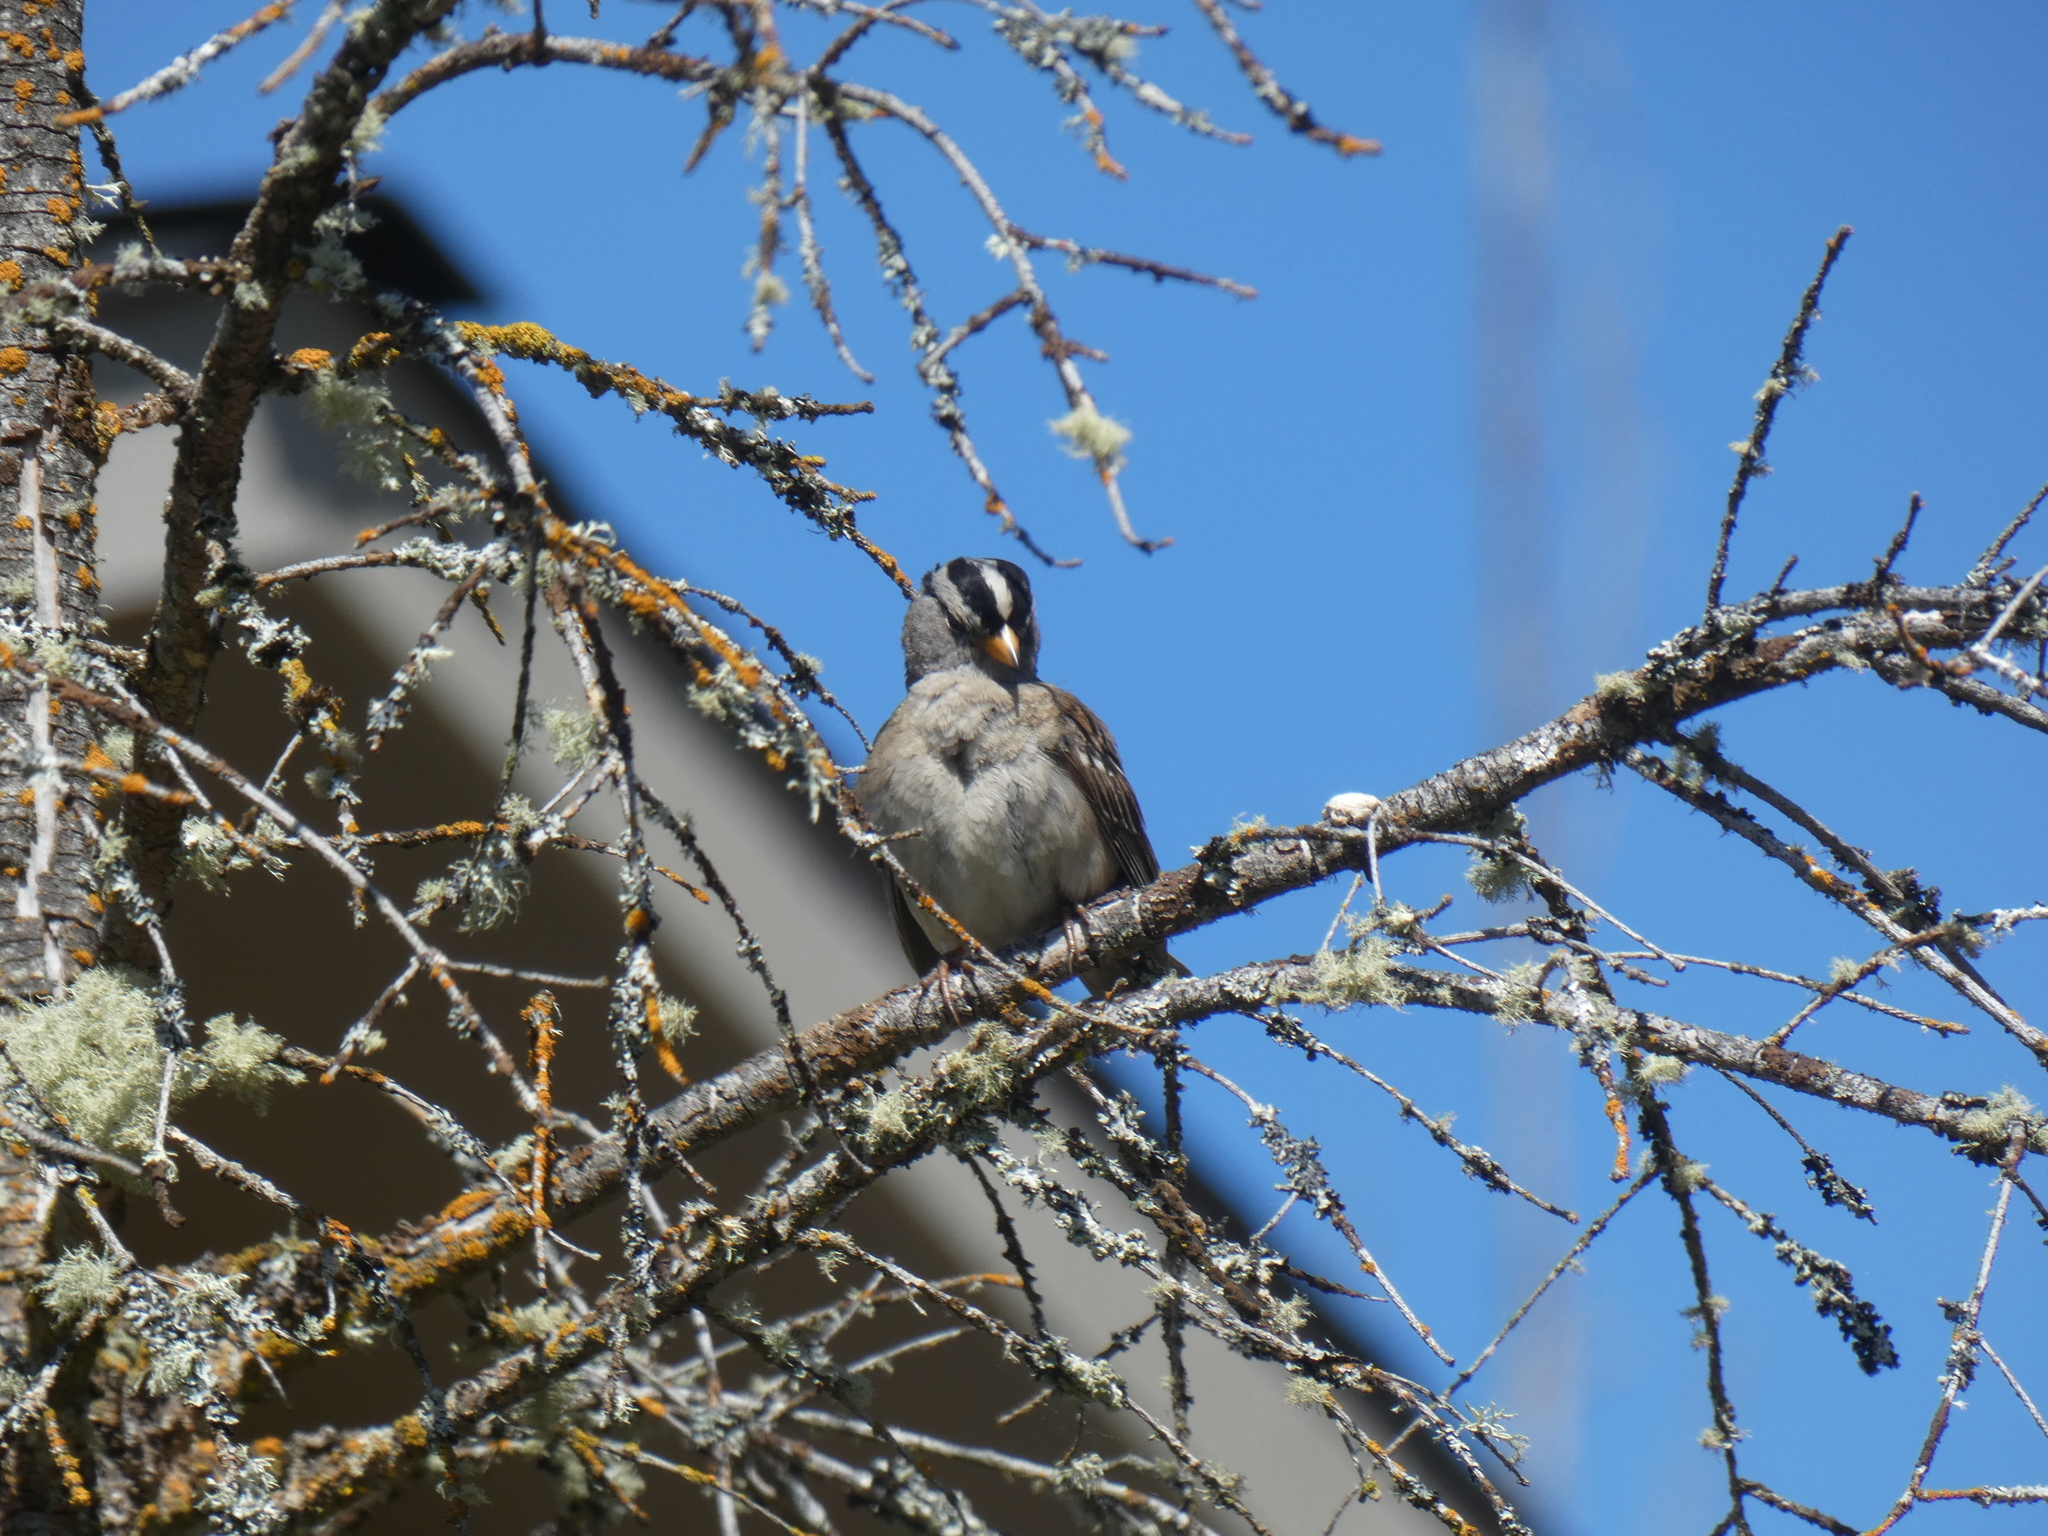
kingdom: Animalia
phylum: Chordata
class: Aves
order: Passeriformes
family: Passerellidae
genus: Zonotrichia
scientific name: Zonotrichia leucophrys
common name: White-crowned sparrow
